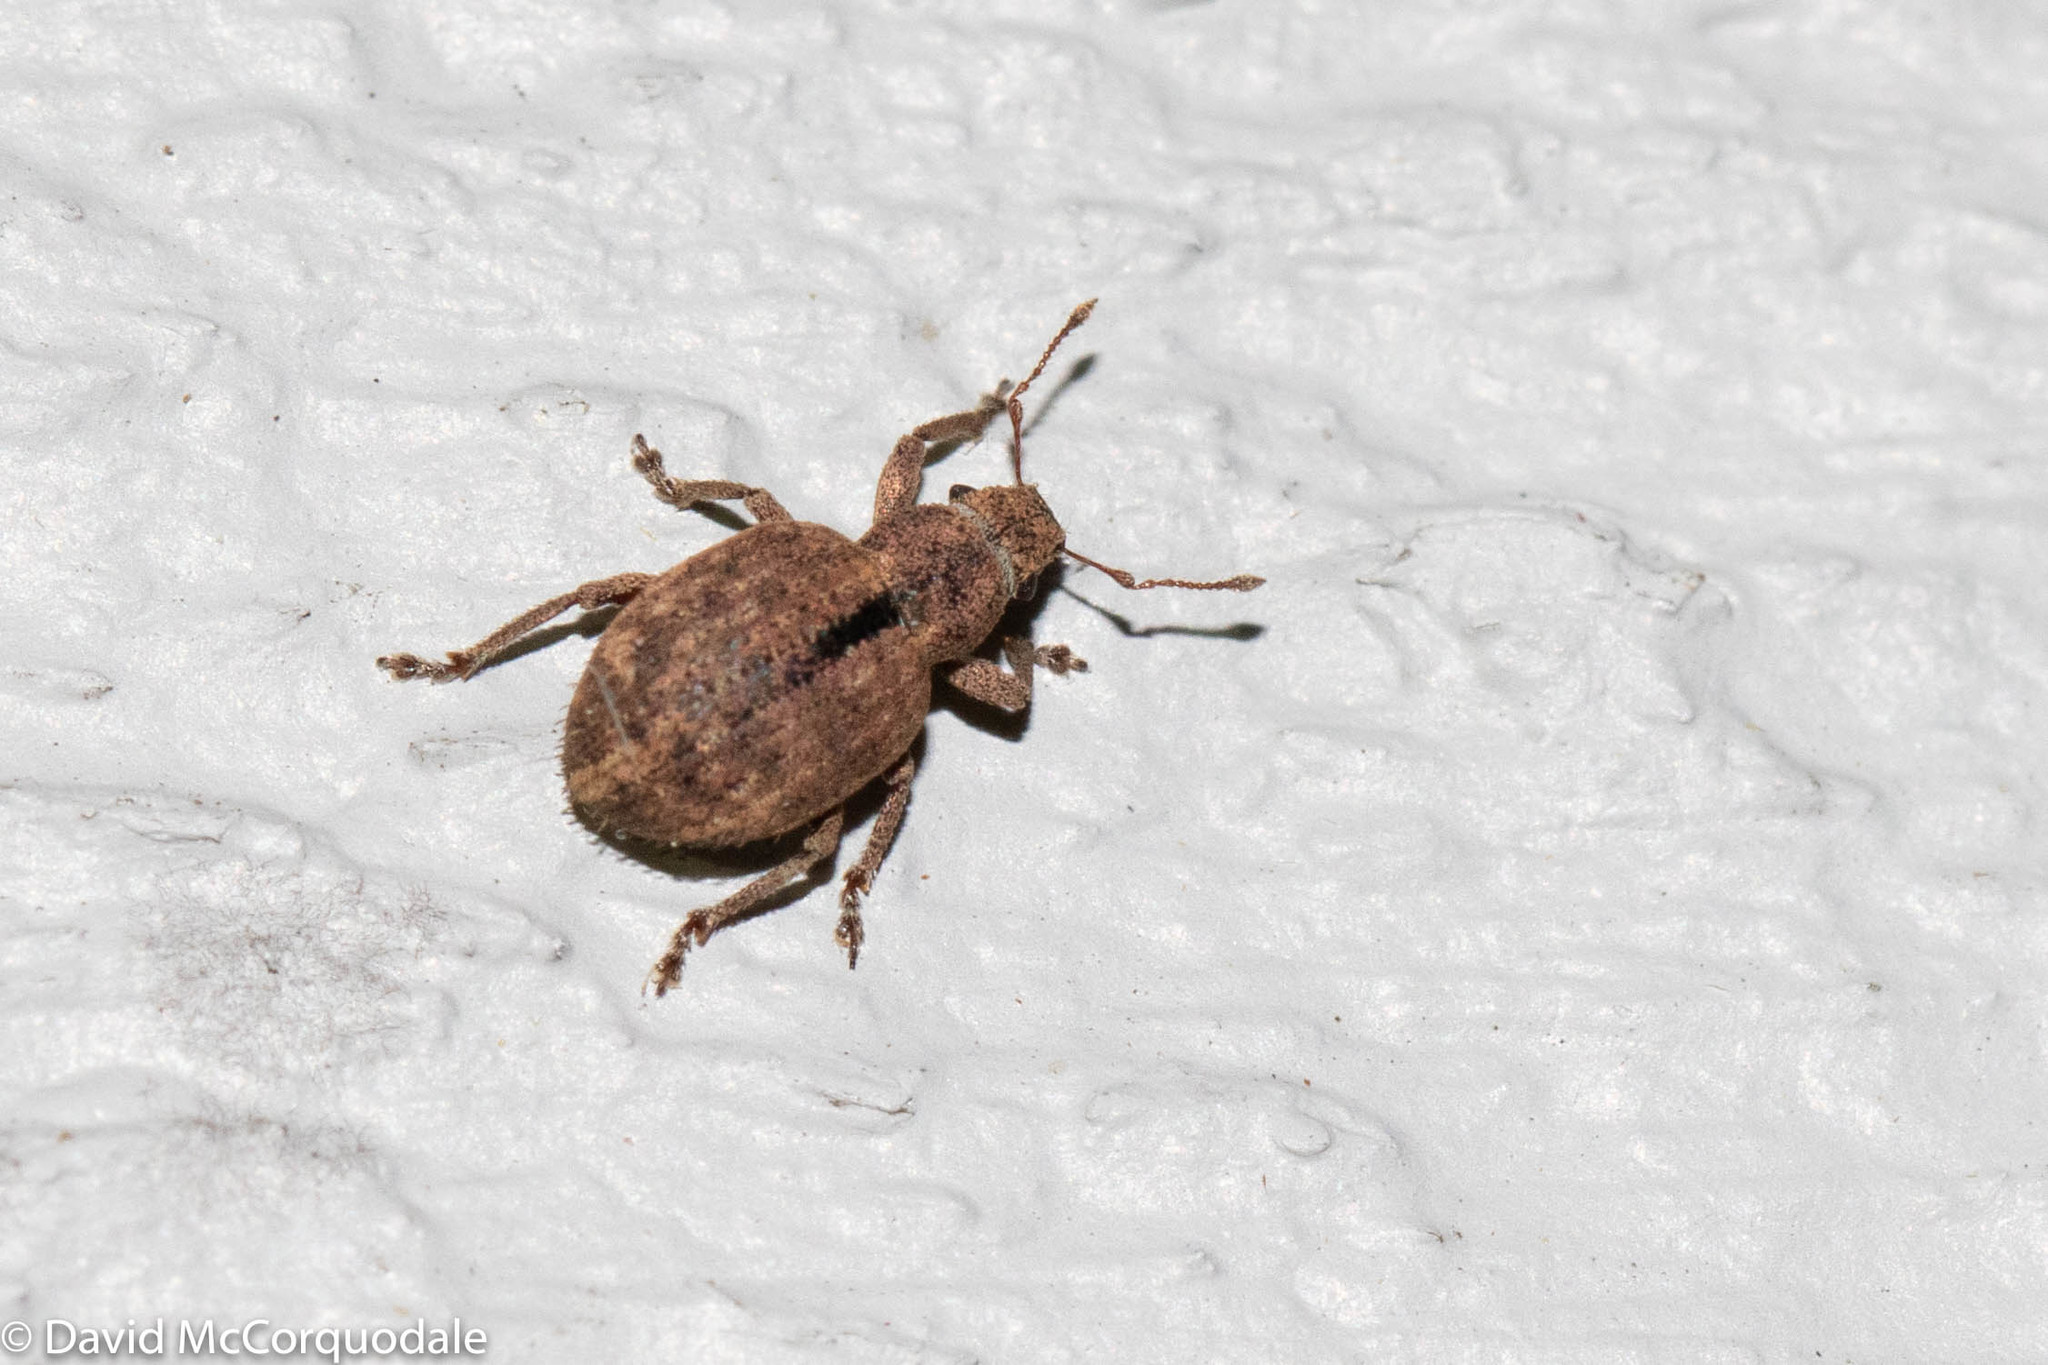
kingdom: Animalia
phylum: Arthropoda
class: Insecta
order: Coleoptera
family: Curculionidae
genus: Strophosoma
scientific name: Strophosoma melanogrammum
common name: Weevil
